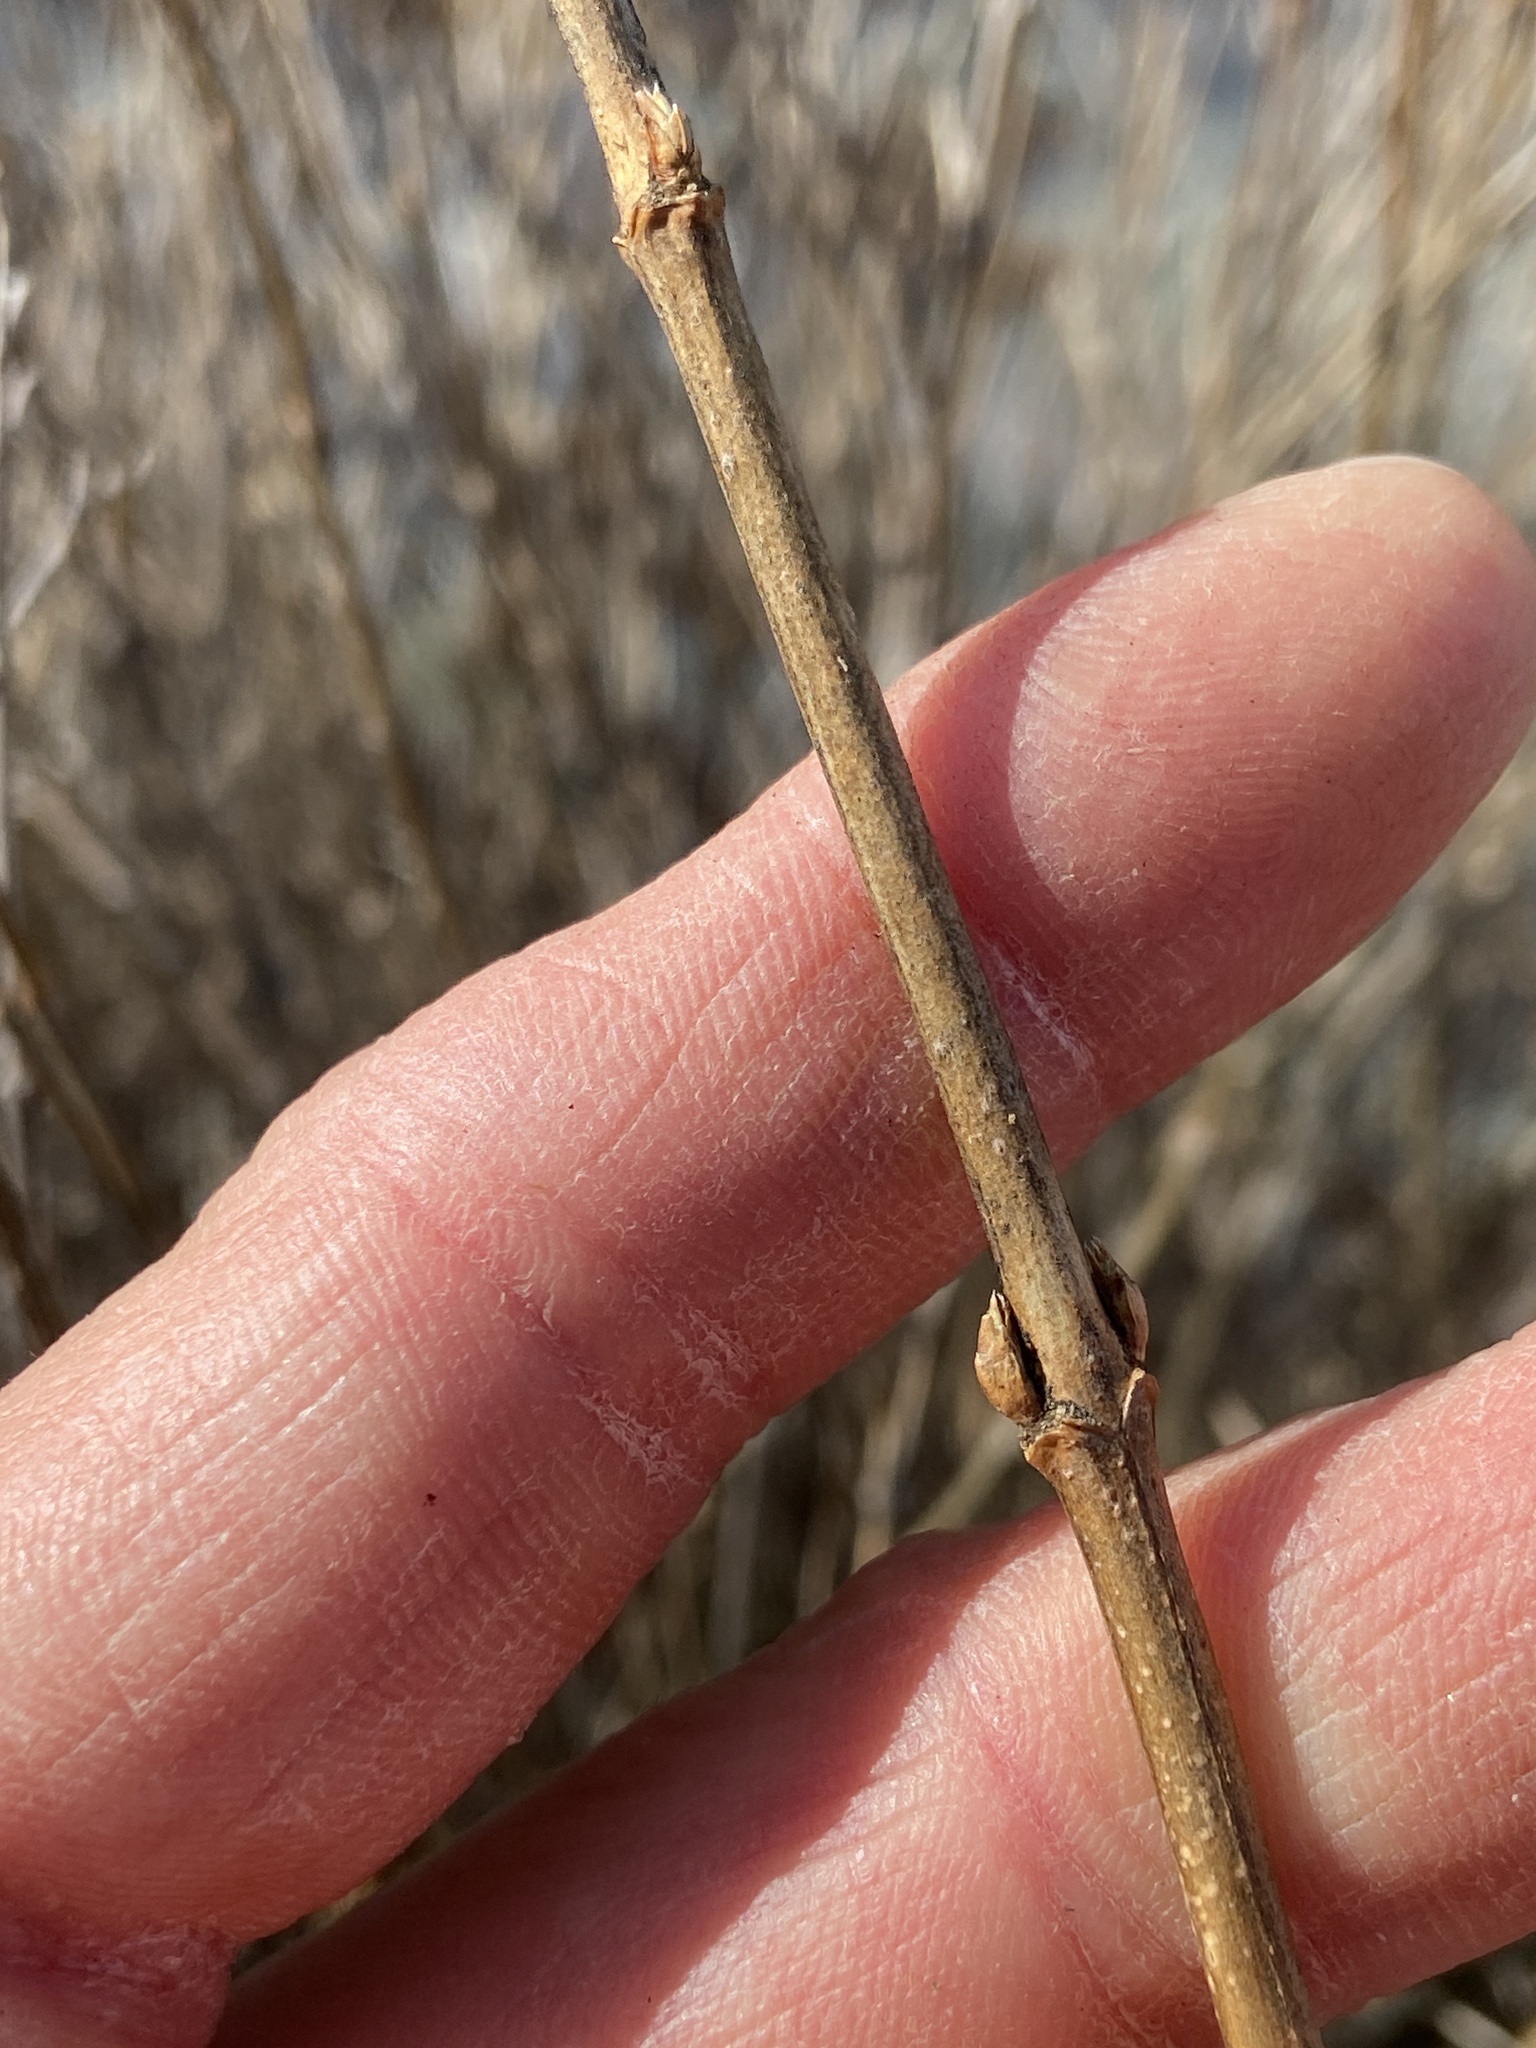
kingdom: Plantae
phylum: Tracheophyta
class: Magnoliopsida
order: Dipsacales
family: Caprifoliaceae
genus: Diervilla
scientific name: Diervilla sessilifolia
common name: Bush-honeysuckle
